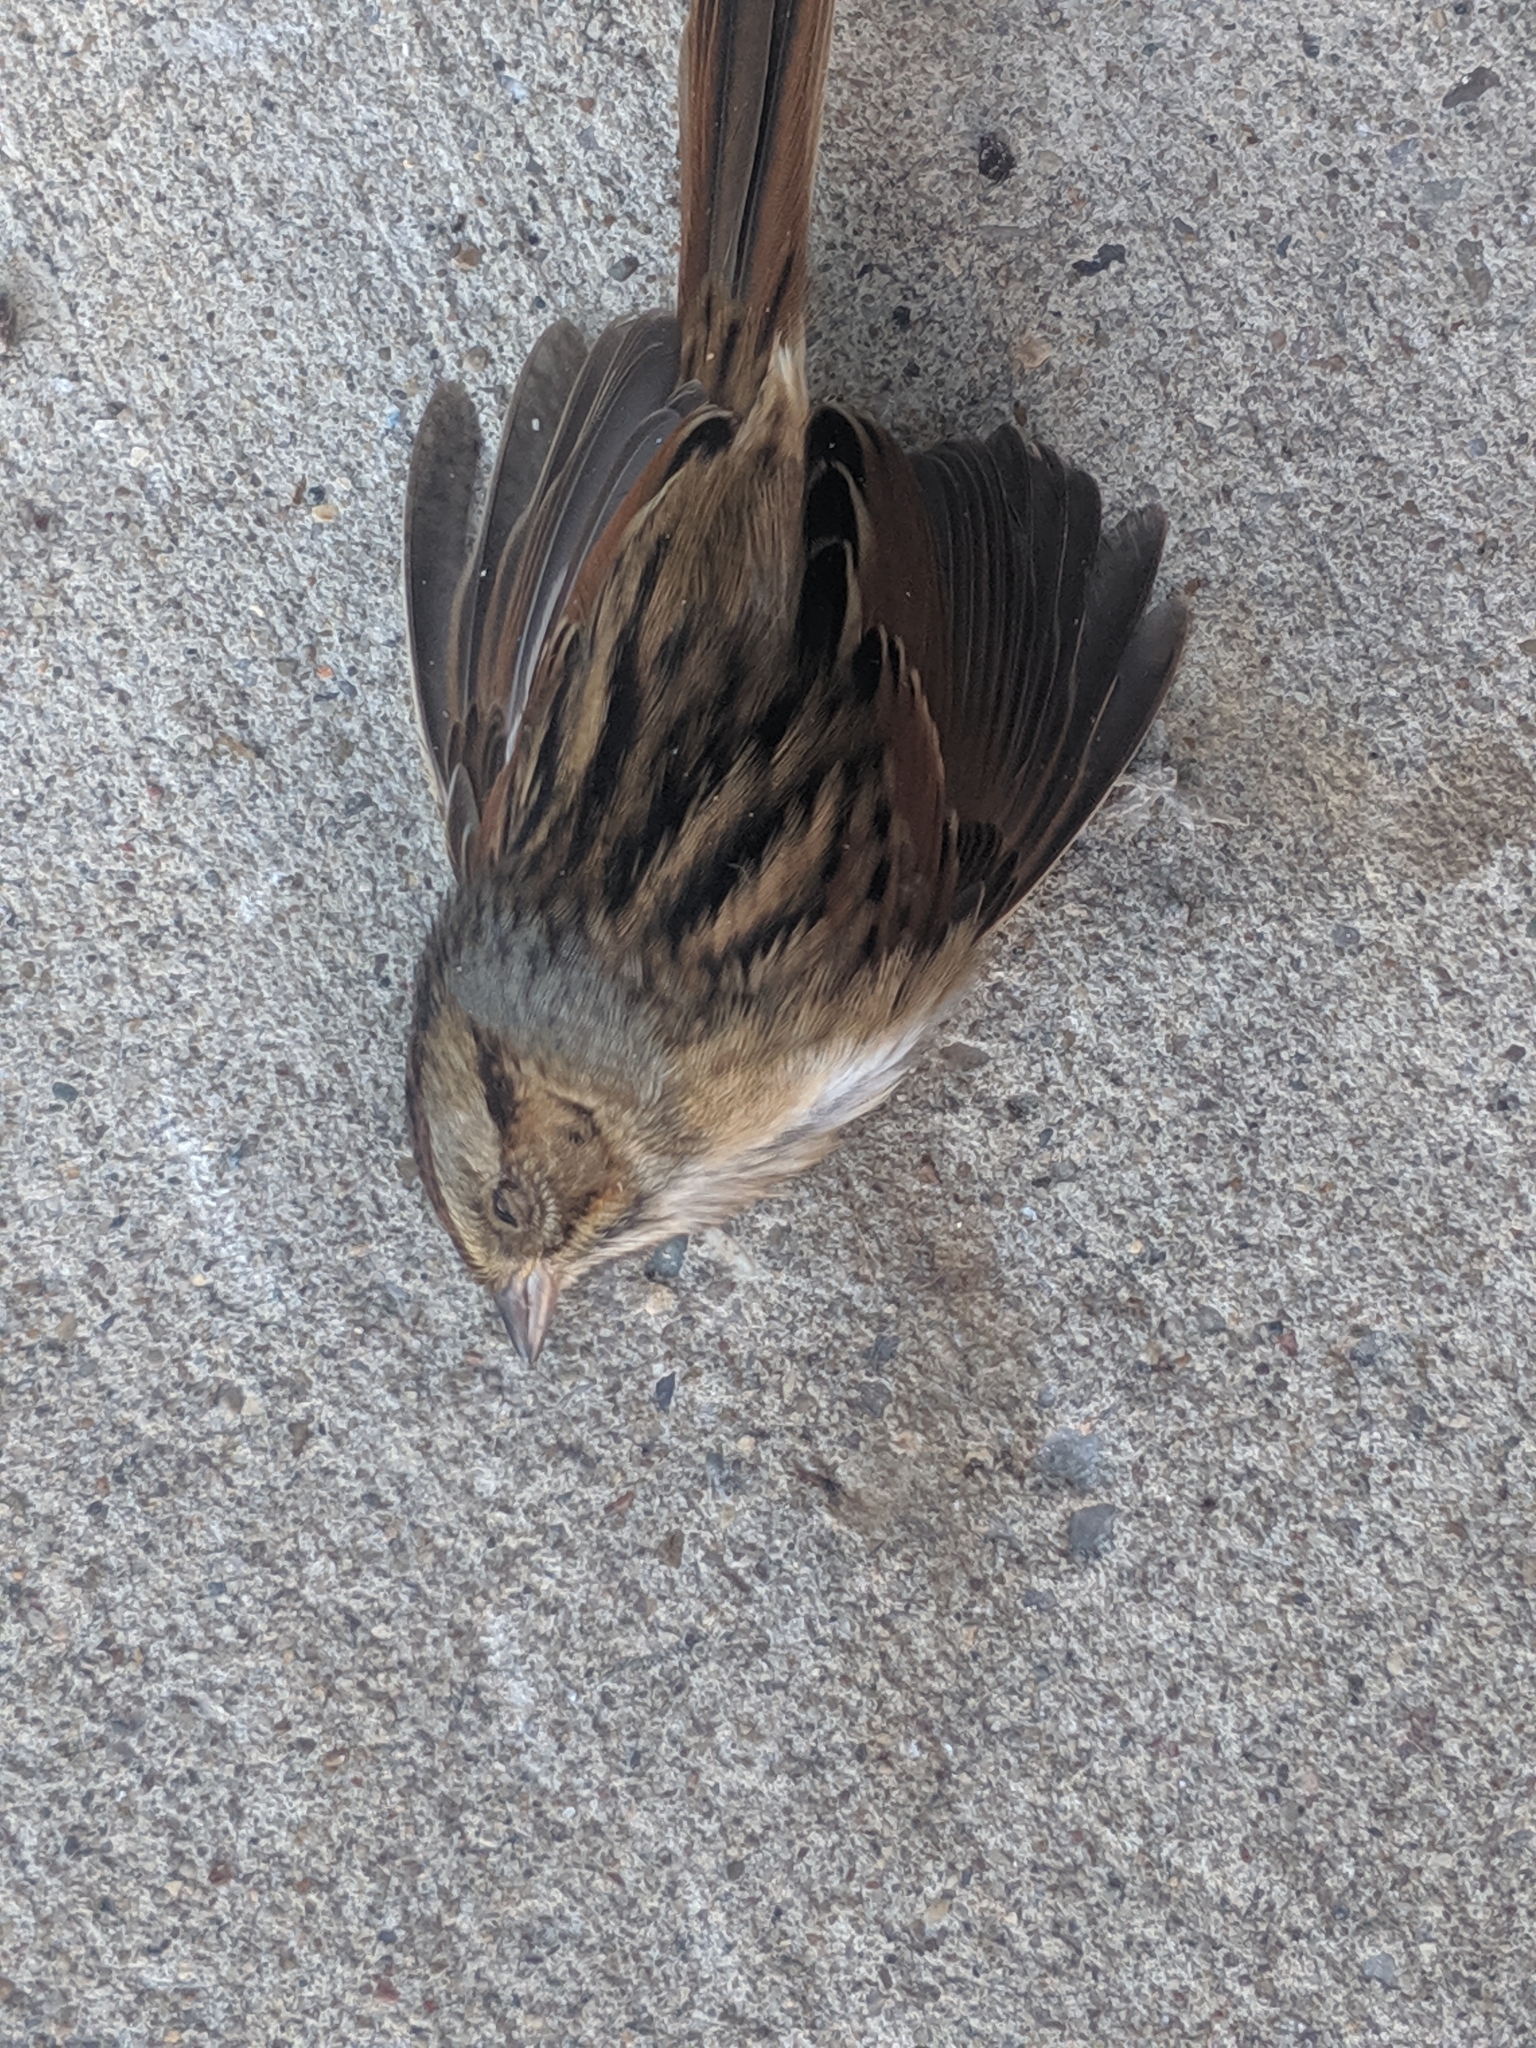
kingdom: Animalia
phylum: Chordata
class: Aves
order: Passeriformes
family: Passerellidae
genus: Melospiza
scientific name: Melospiza georgiana
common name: Swamp sparrow
